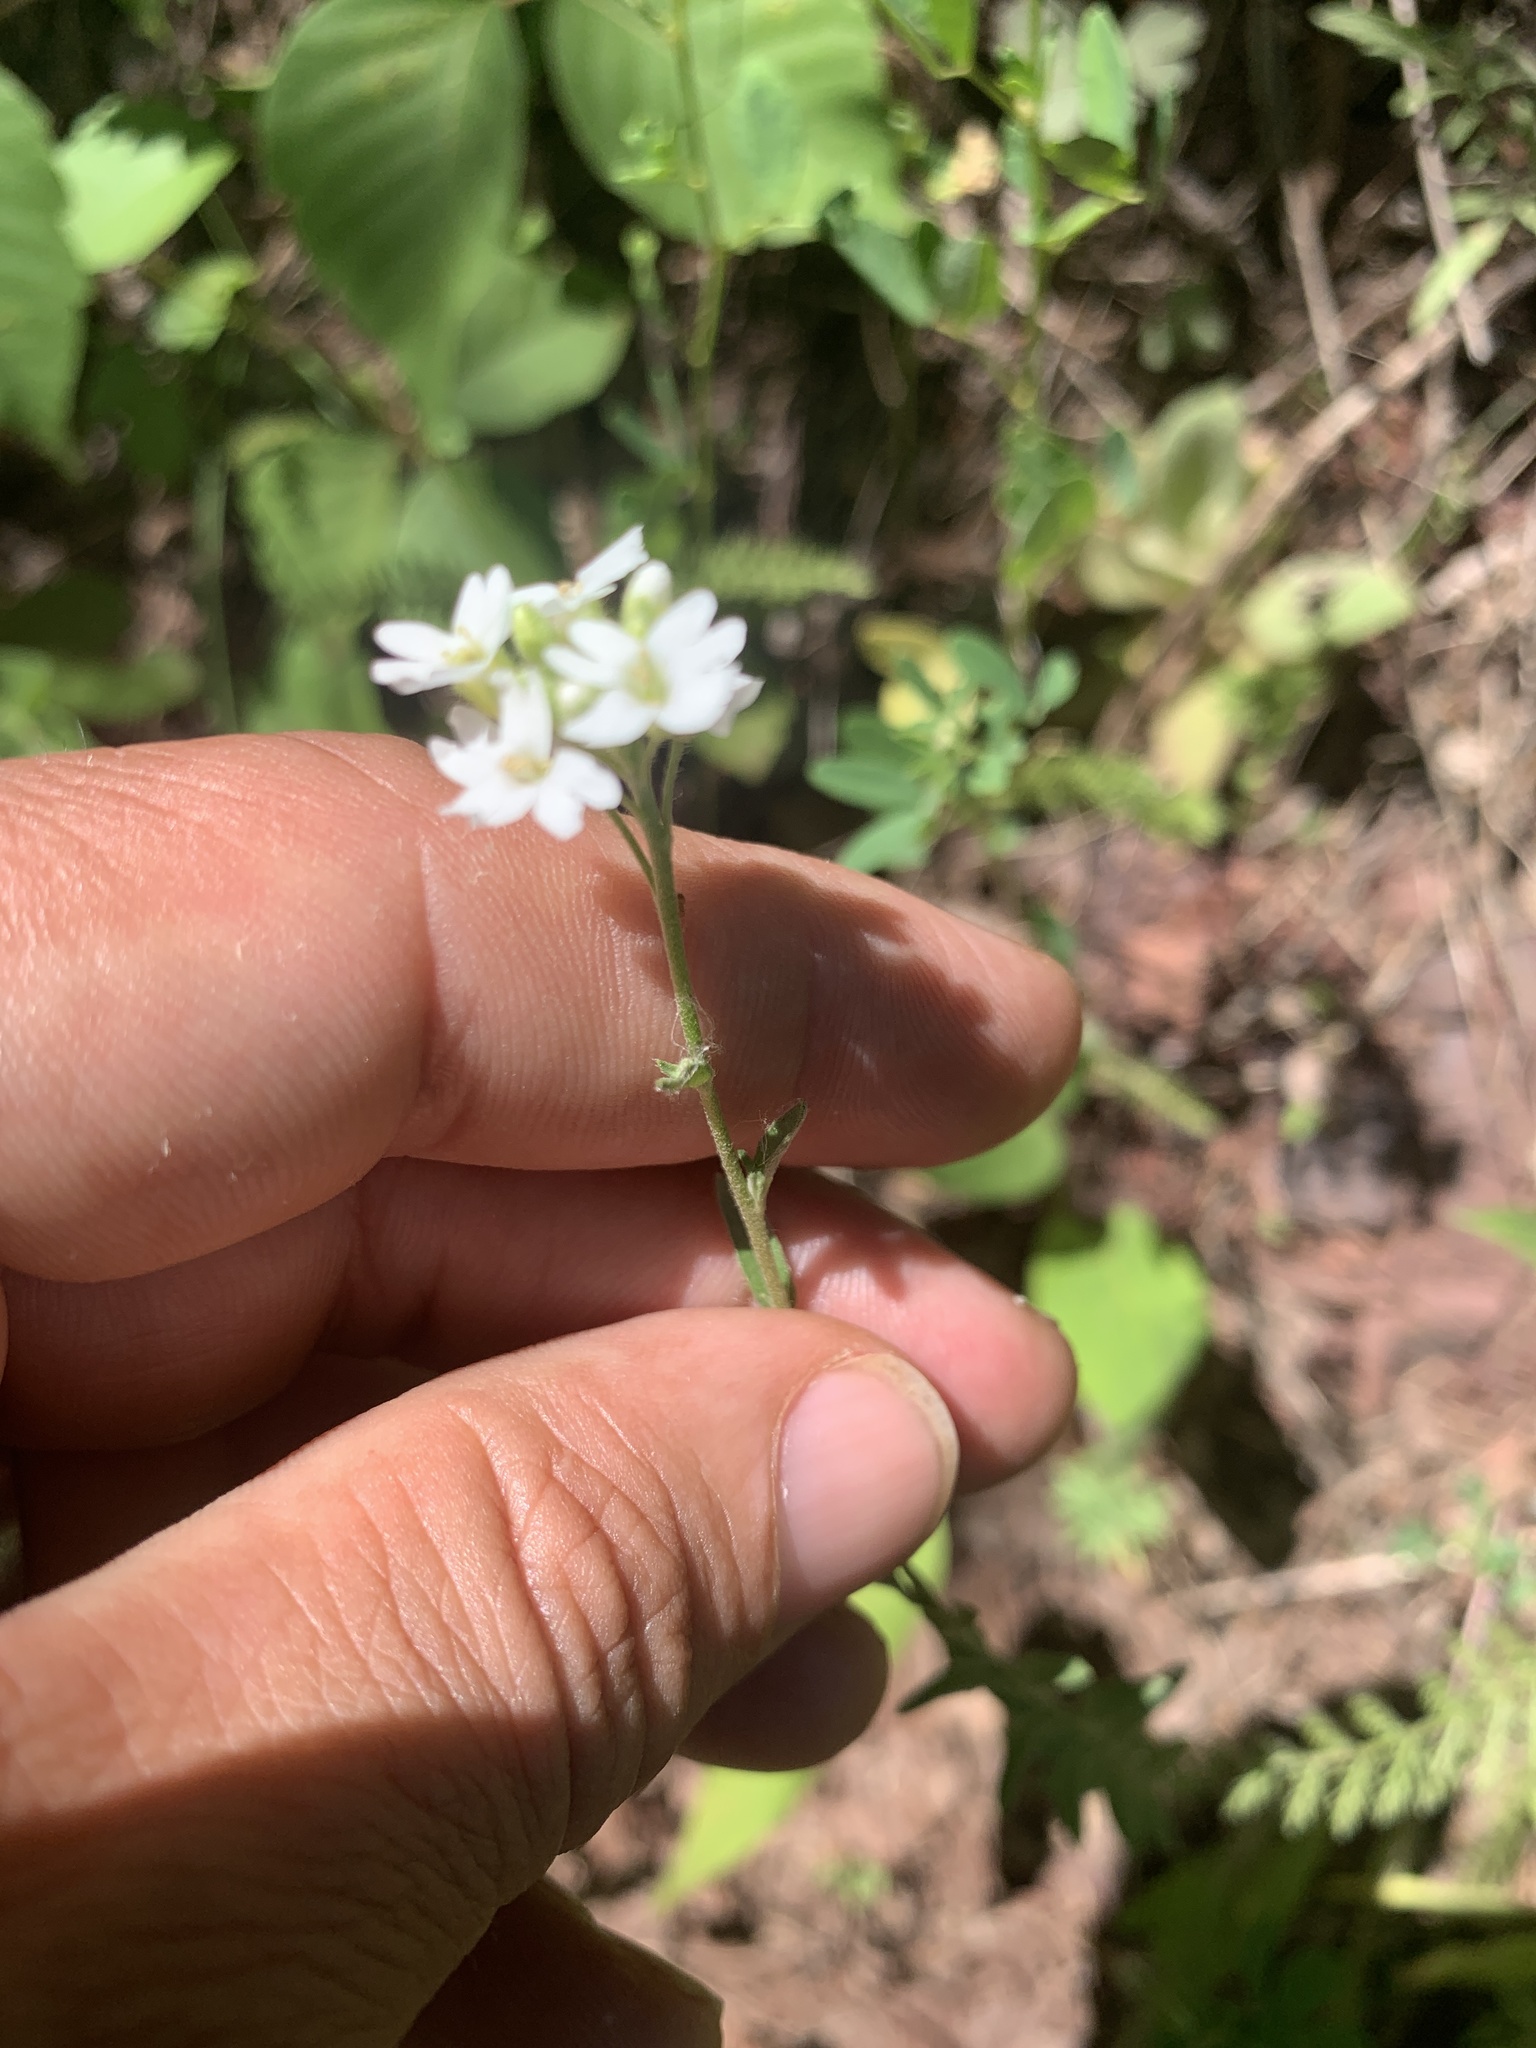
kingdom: Plantae
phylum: Tracheophyta
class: Magnoliopsida
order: Brassicales
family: Brassicaceae
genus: Berteroa
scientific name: Berteroa incana
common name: Hoary alison
